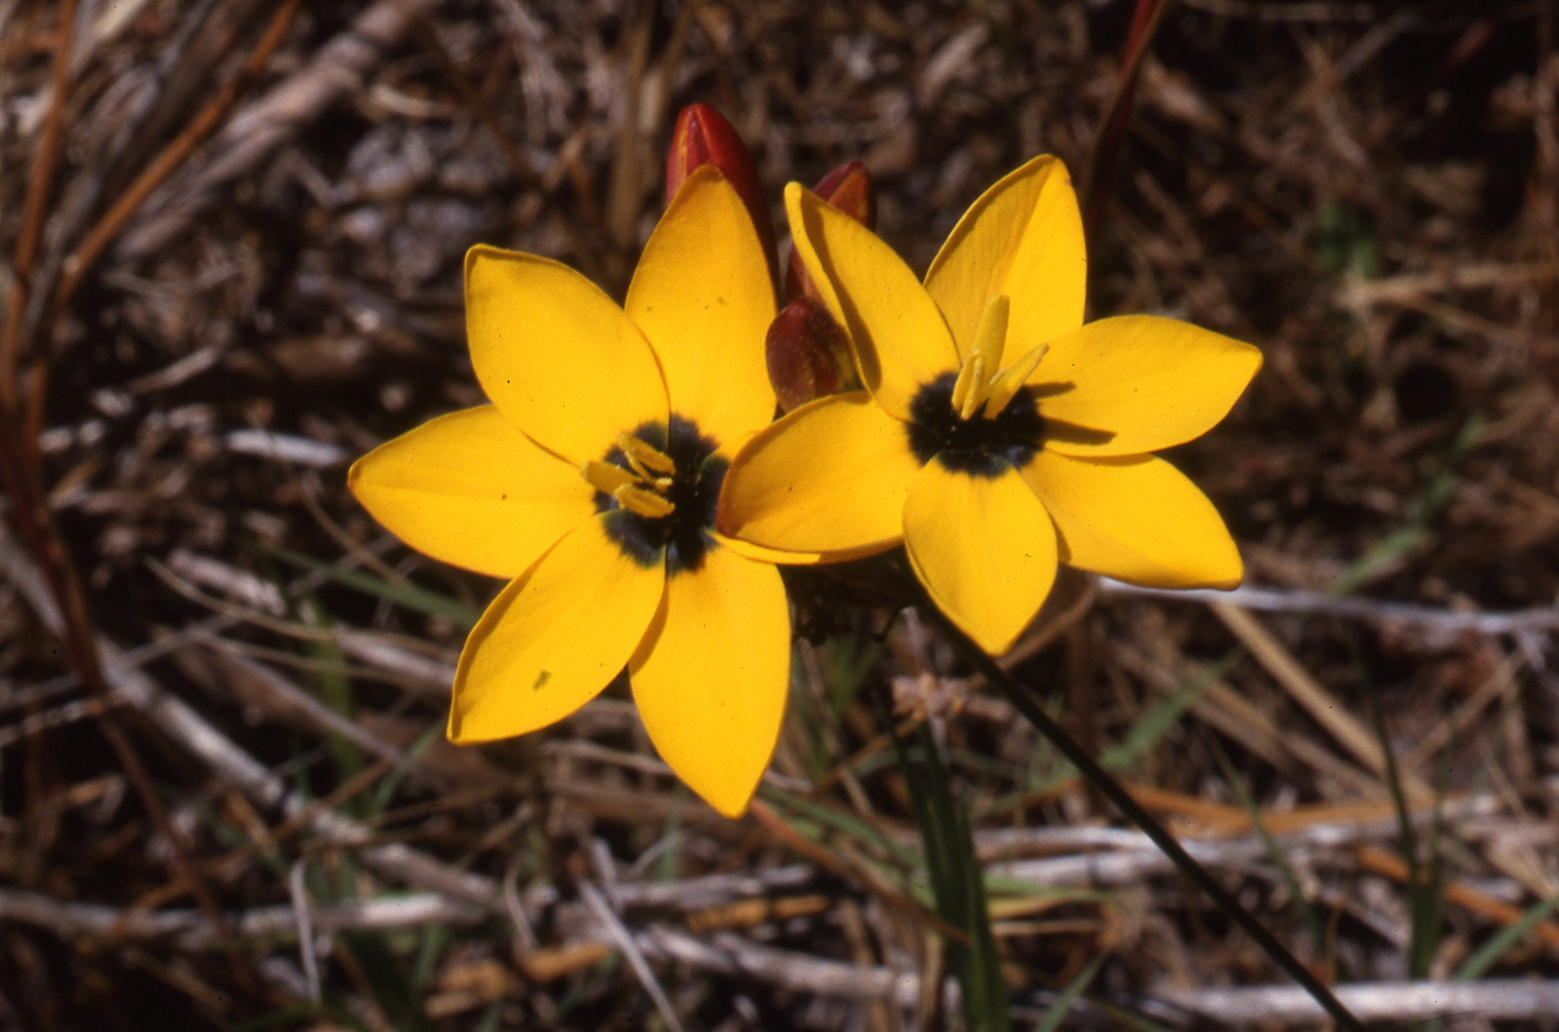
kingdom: Plantae
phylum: Tracheophyta
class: Liliopsida
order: Asparagales
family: Iridaceae
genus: Ixia
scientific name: Ixia dubia
